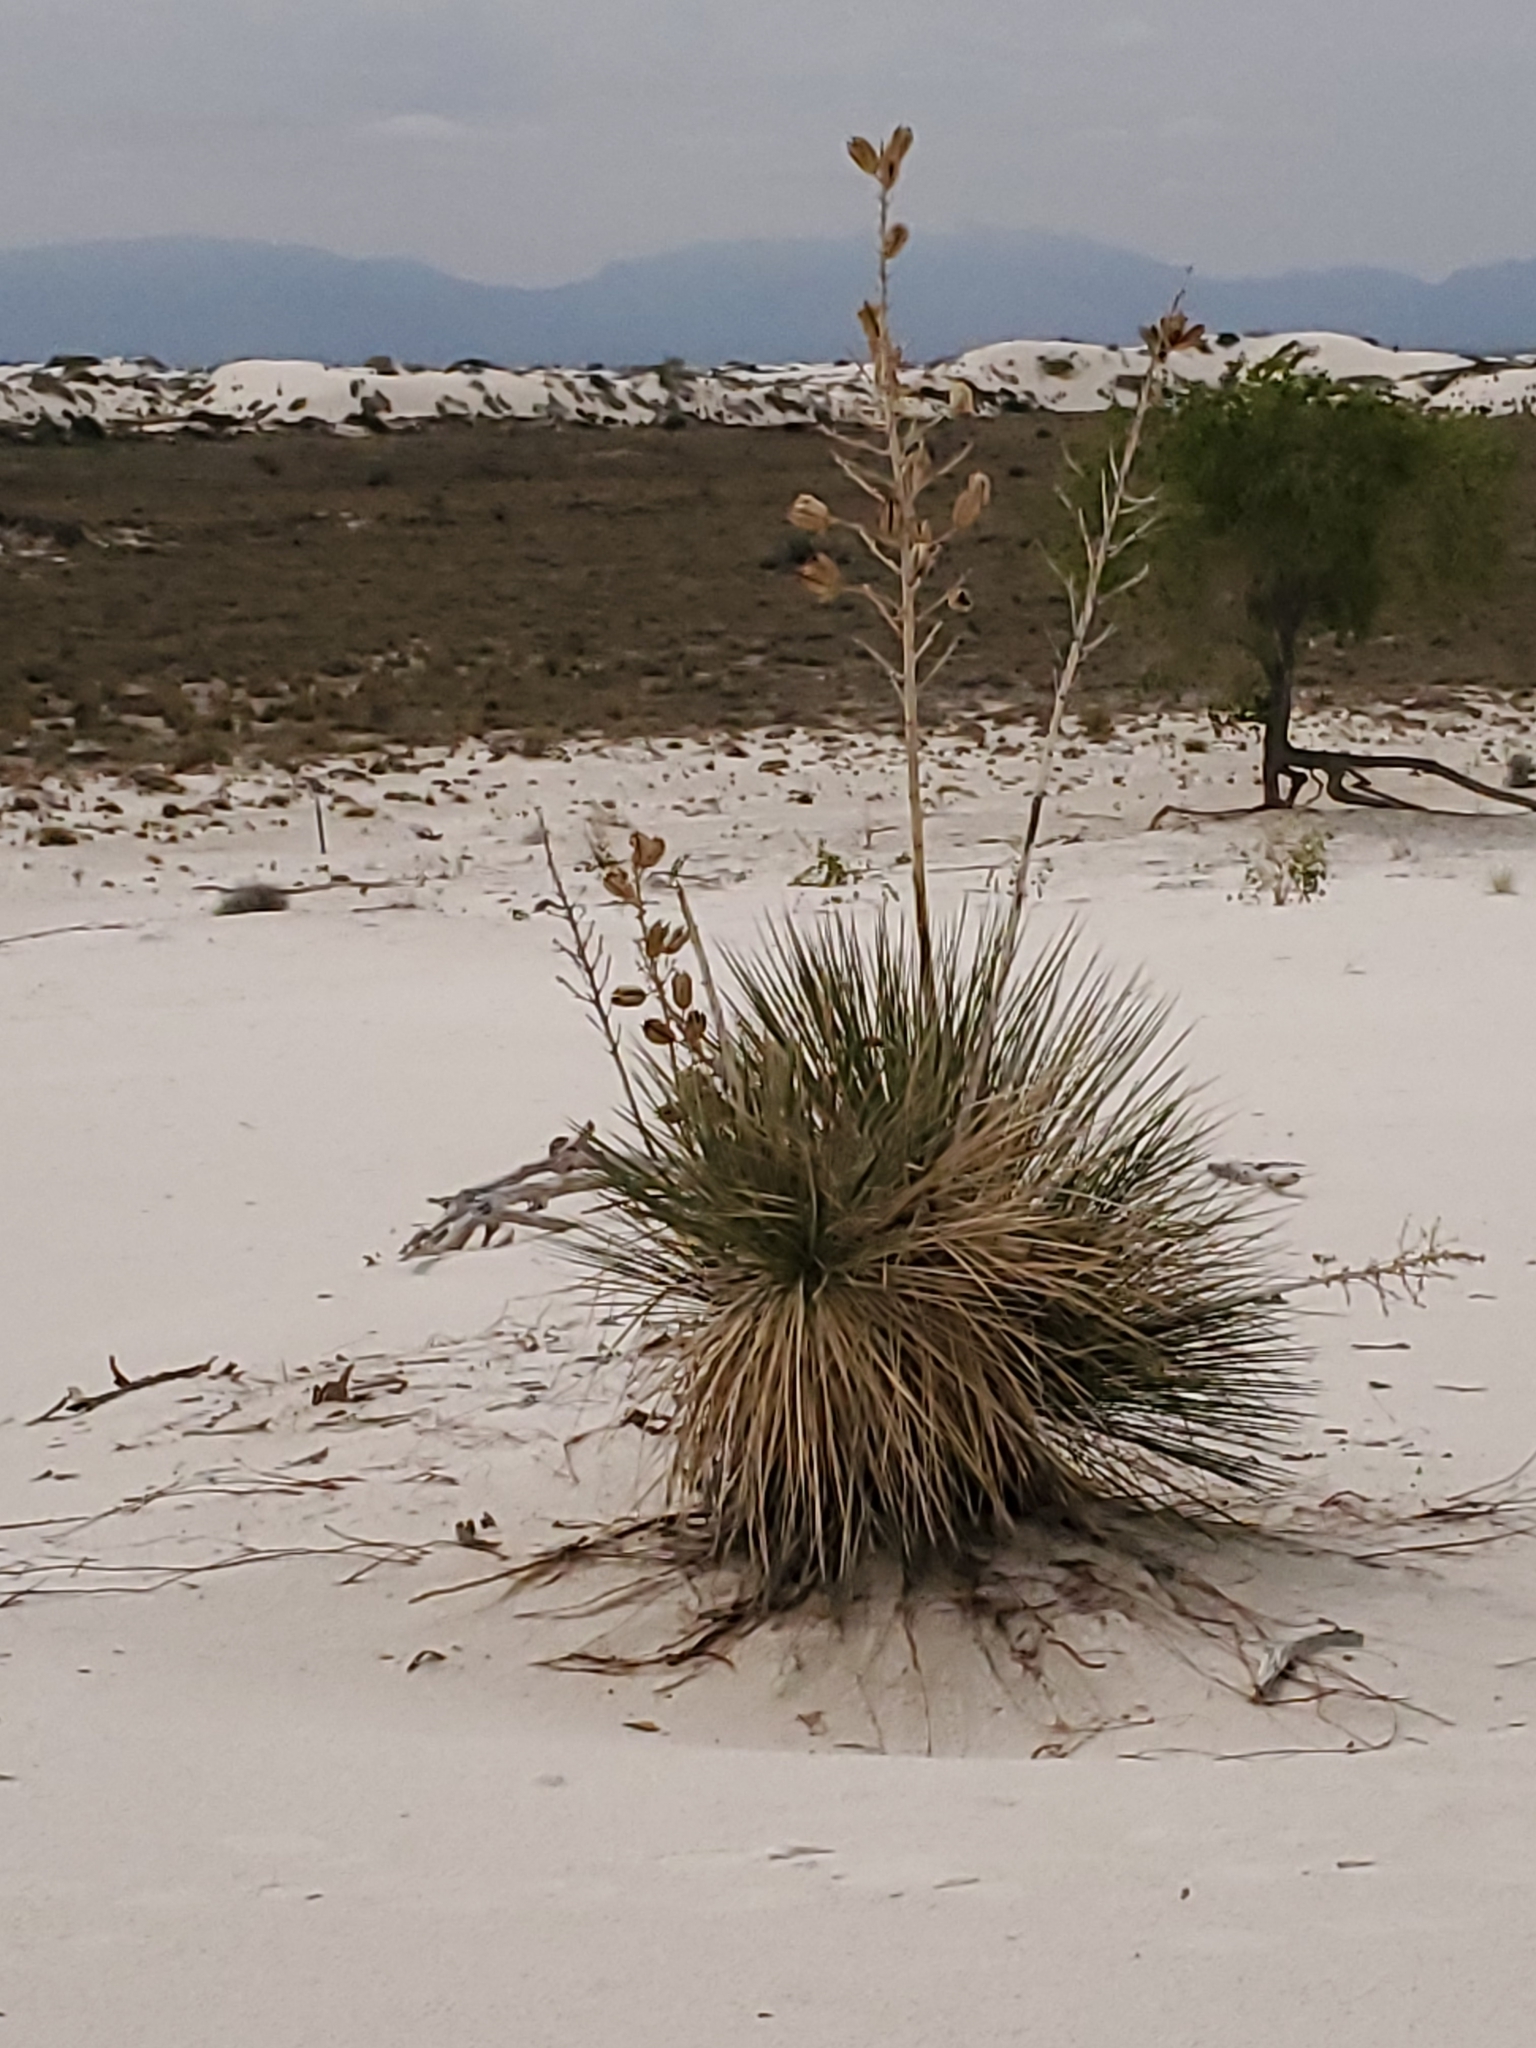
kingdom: Plantae
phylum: Tracheophyta
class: Liliopsida
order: Asparagales
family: Asparagaceae
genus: Yucca
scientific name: Yucca elata
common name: Palmella
